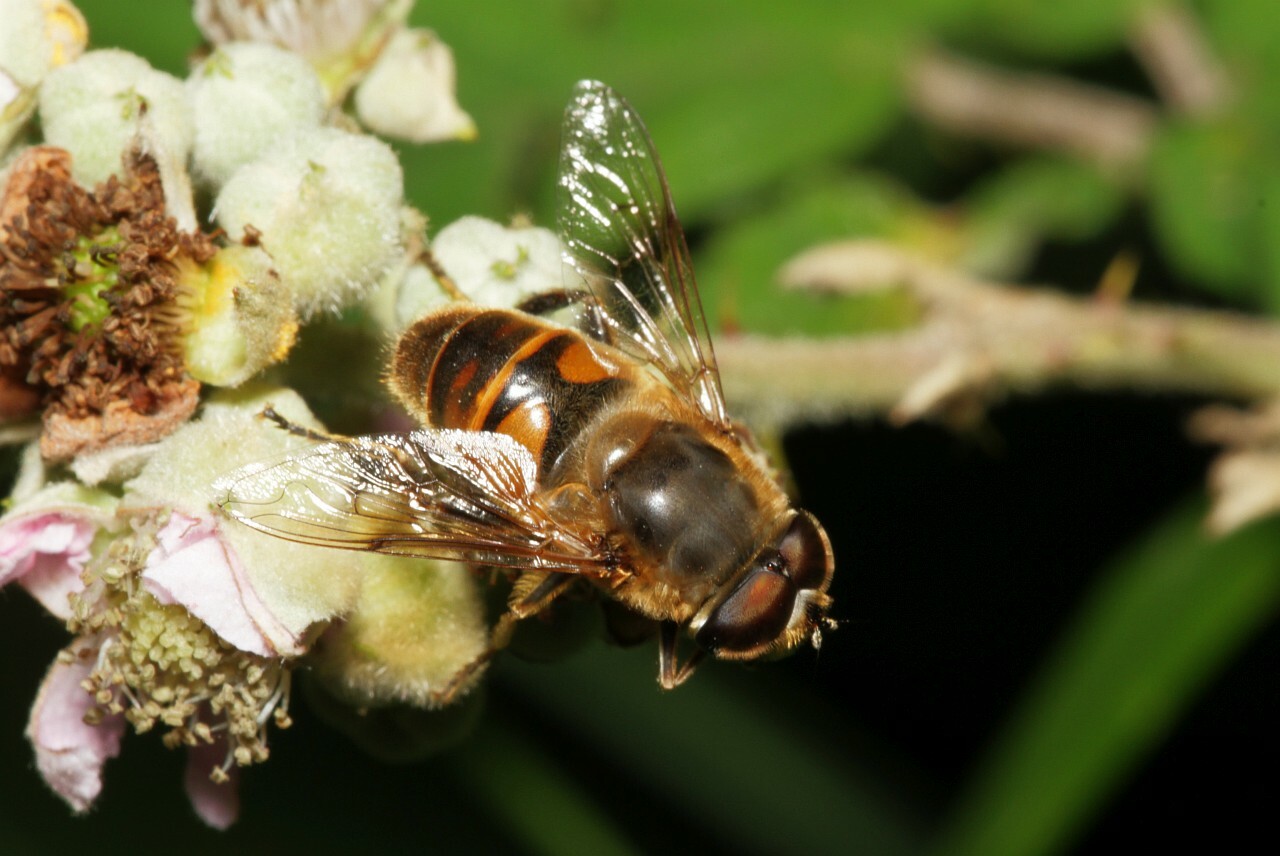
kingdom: Animalia
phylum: Arthropoda
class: Insecta
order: Diptera
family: Syrphidae
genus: Eristalis
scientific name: Eristalis tenax
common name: Drone fly
